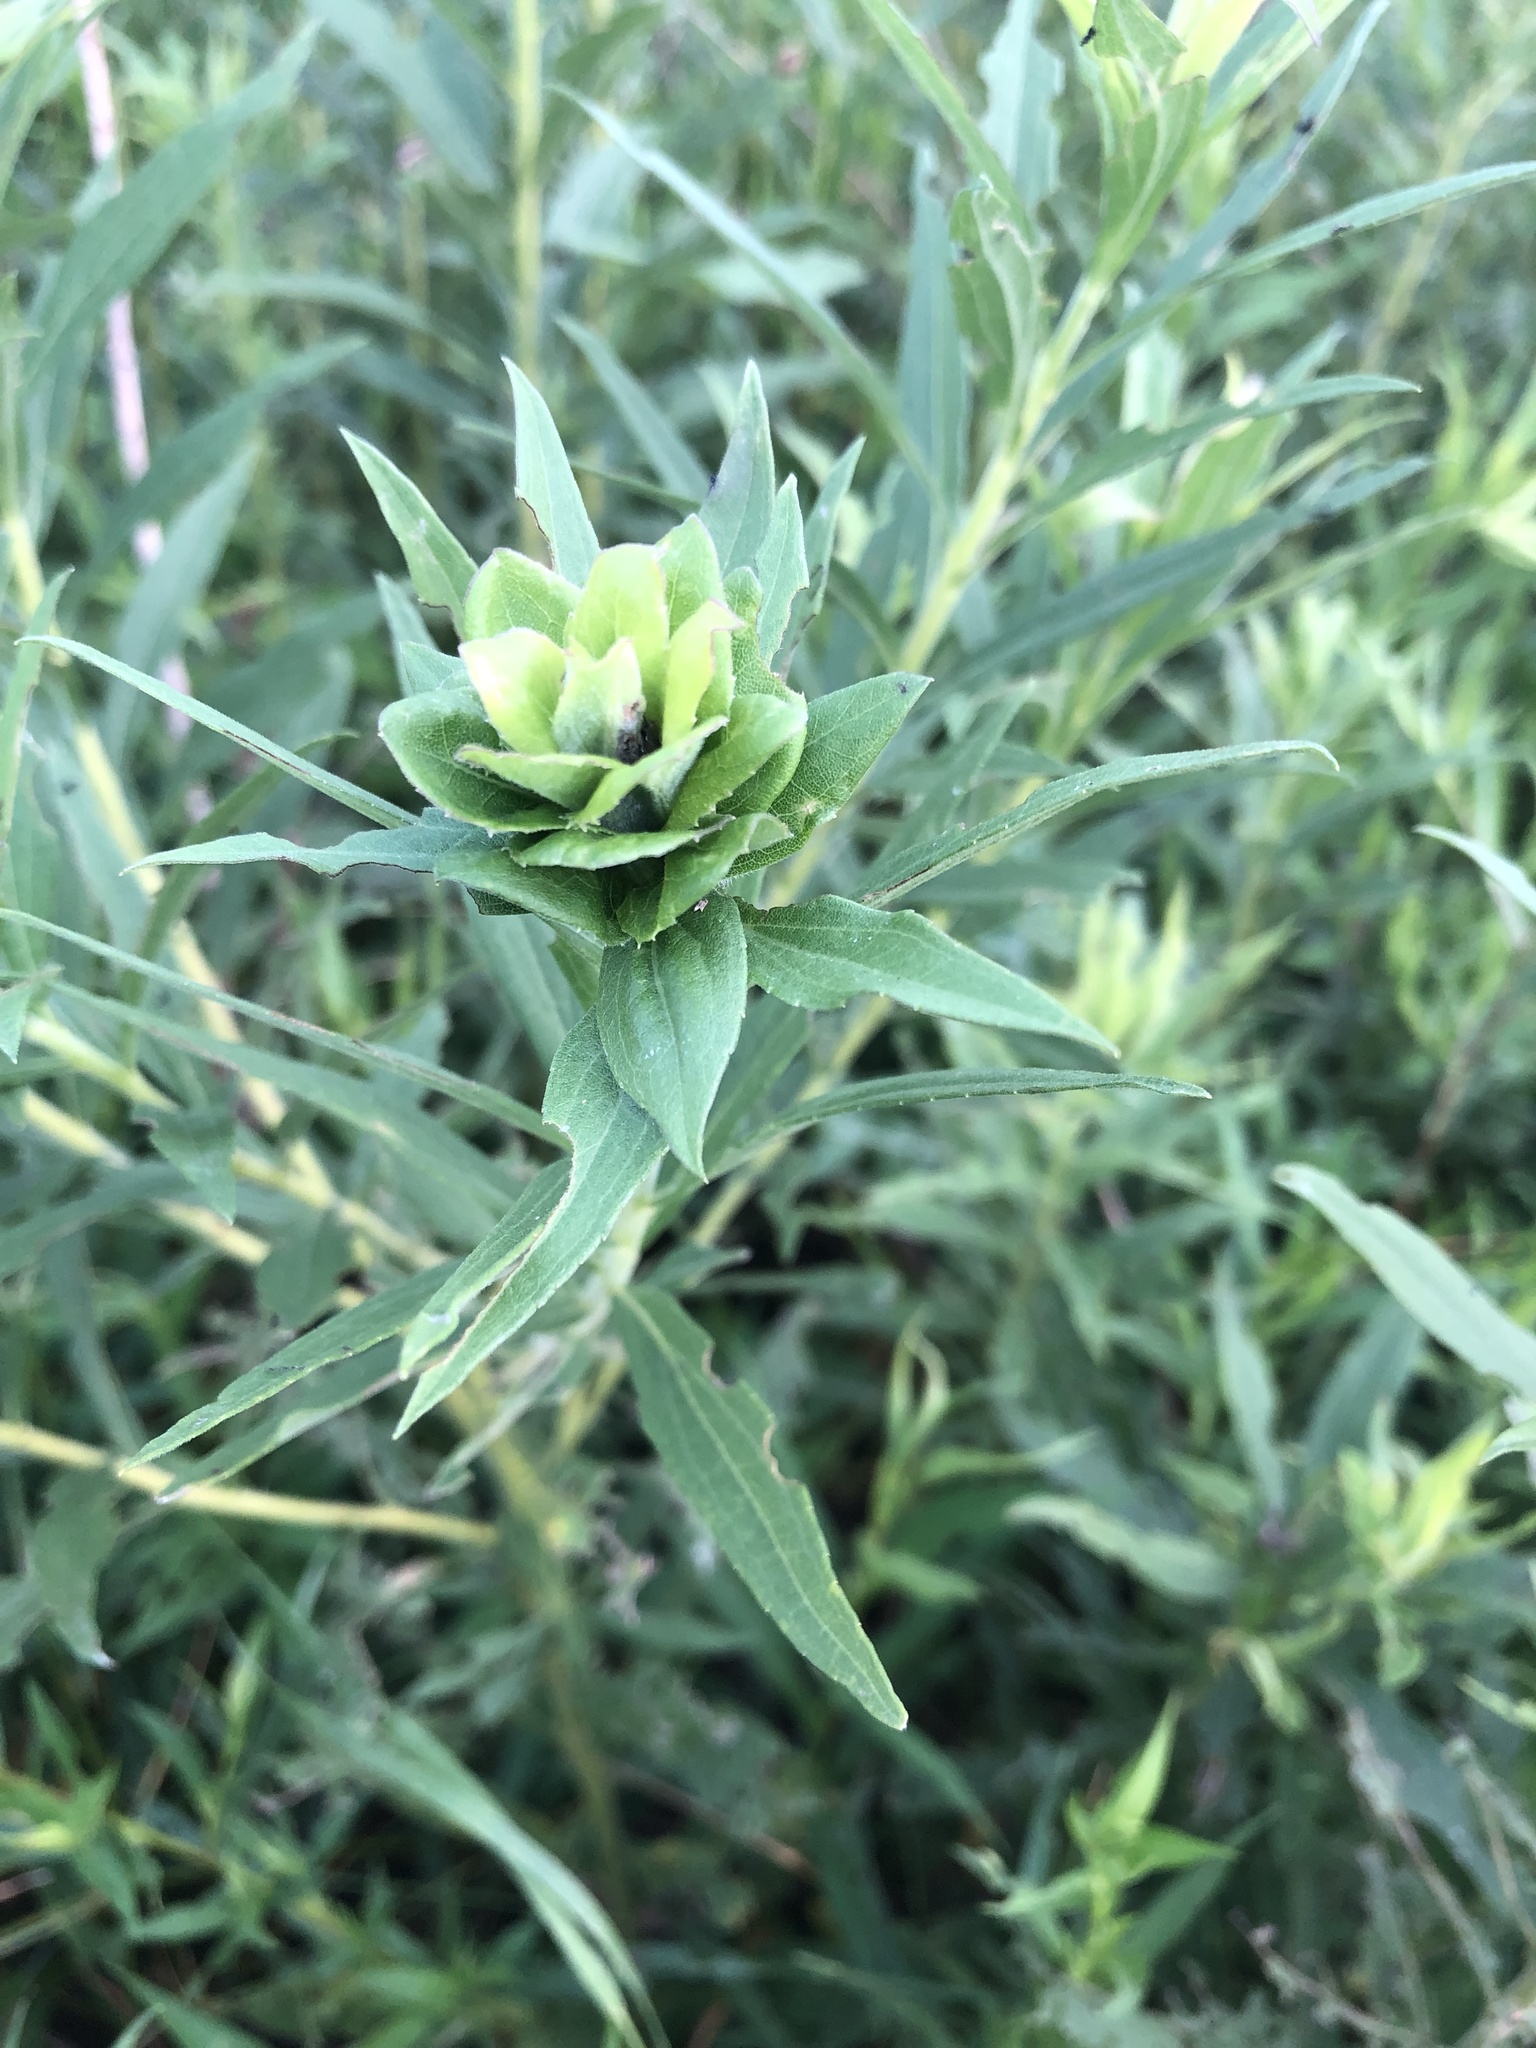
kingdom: Animalia
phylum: Arthropoda
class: Insecta
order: Diptera
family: Cecidomyiidae
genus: Asphondylia
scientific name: Asphondylia solidaginis
